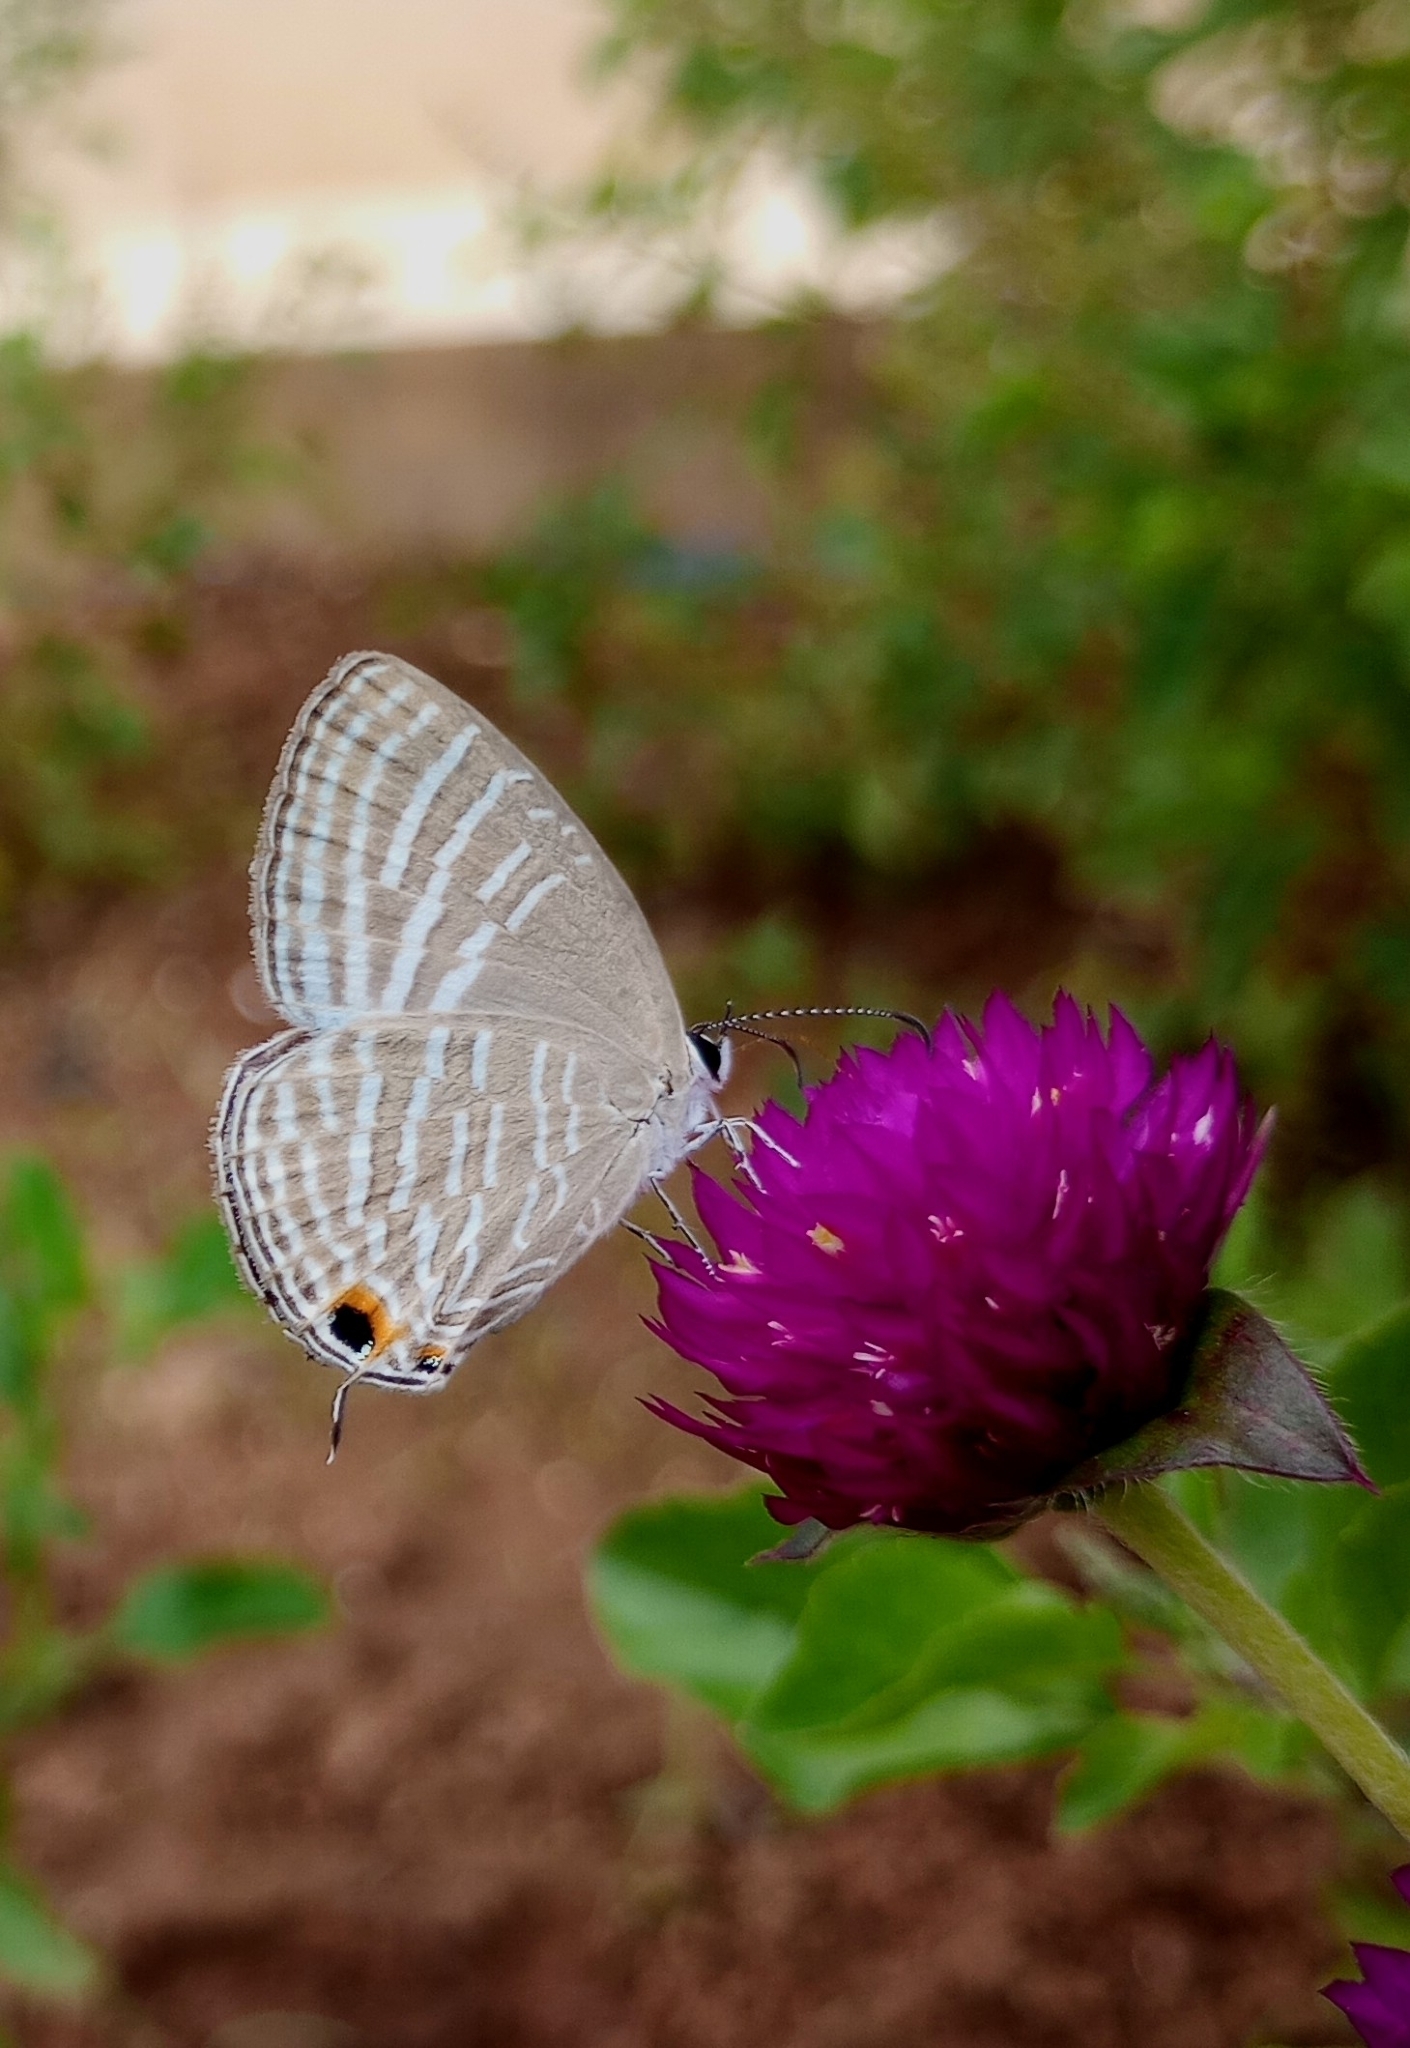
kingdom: Animalia
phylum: Arthropoda
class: Insecta
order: Lepidoptera
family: Lycaenidae
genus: Jamides
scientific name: Jamides celeno
